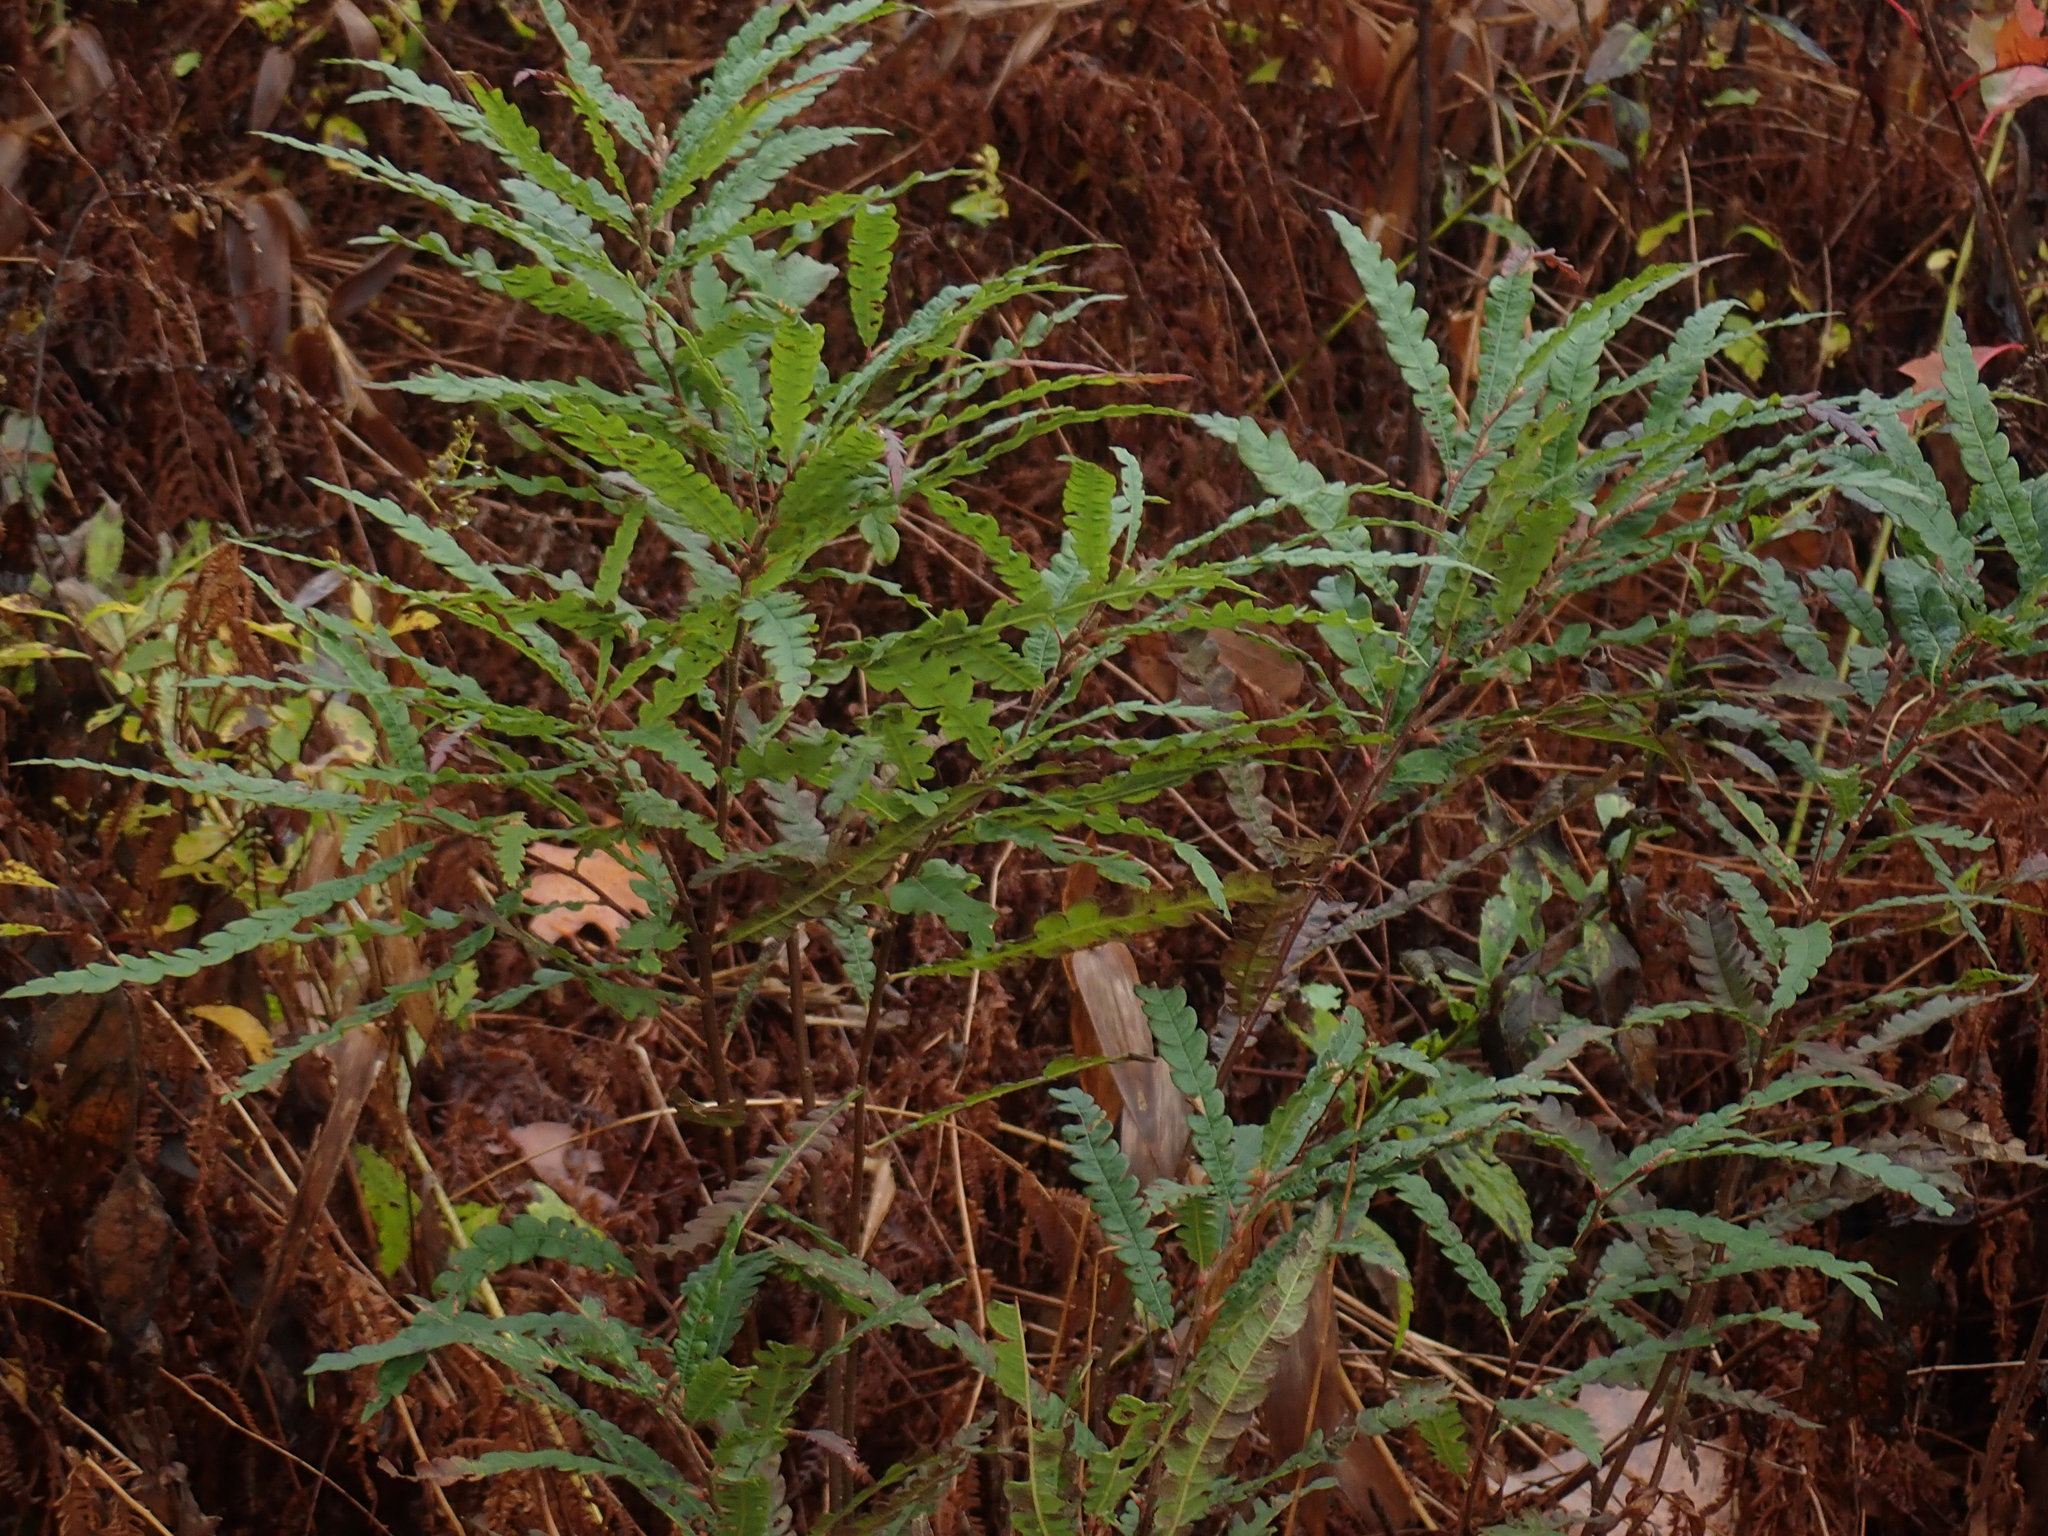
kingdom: Plantae
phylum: Tracheophyta
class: Magnoliopsida
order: Fagales
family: Myricaceae
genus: Comptonia
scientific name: Comptonia peregrina
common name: Sweet-fern
